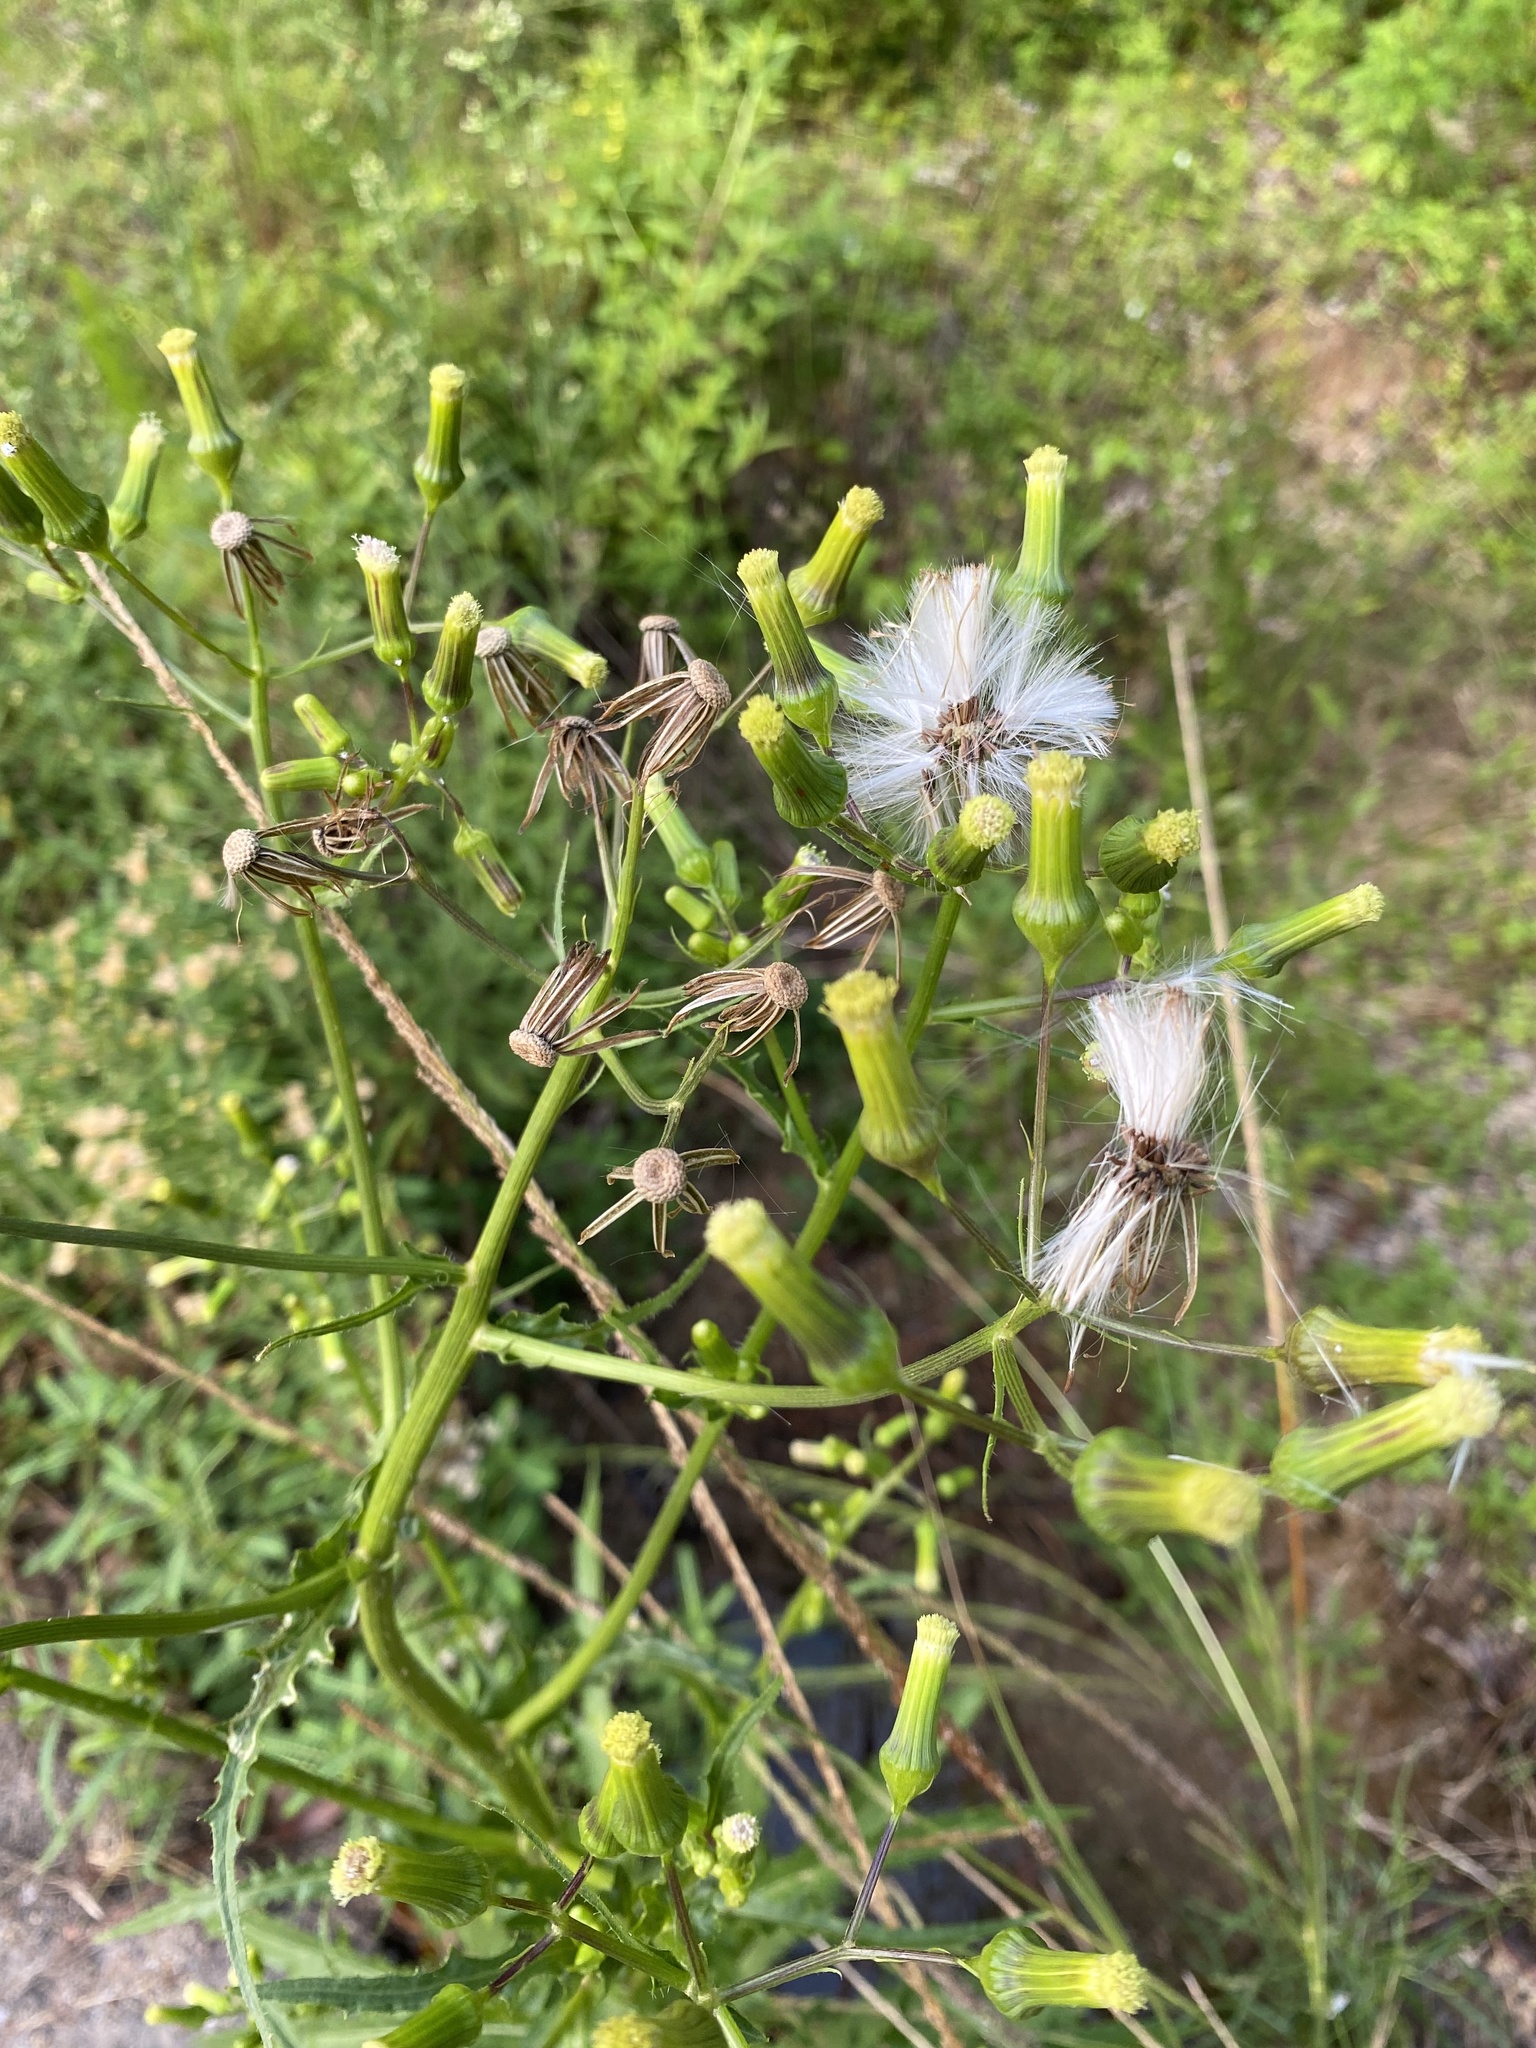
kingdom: Plantae
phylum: Tracheophyta
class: Magnoliopsida
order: Asterales
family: Asteraceae
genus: Erechtites
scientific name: Erechtites hieraciifolius
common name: American burnweed
